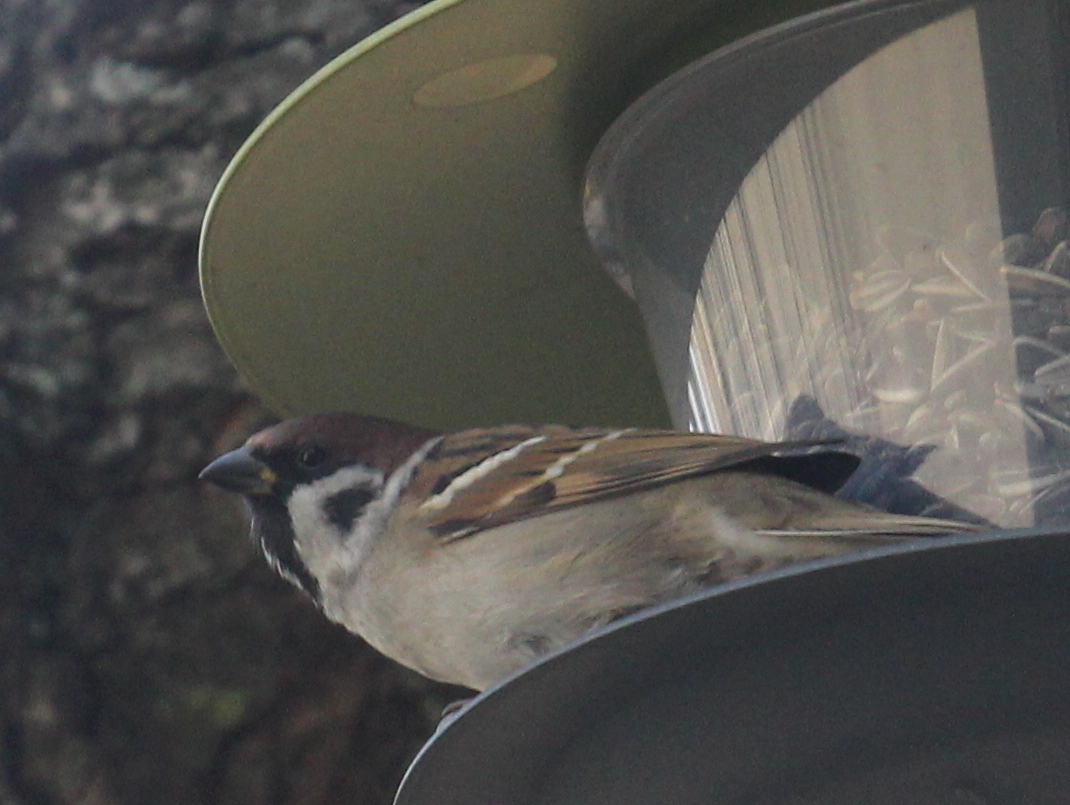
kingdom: Animalia
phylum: Chordata
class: Aves
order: Passeriformes
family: Passeridae
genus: Passer
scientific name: Passer montanus
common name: Eurasian tree sparrow
